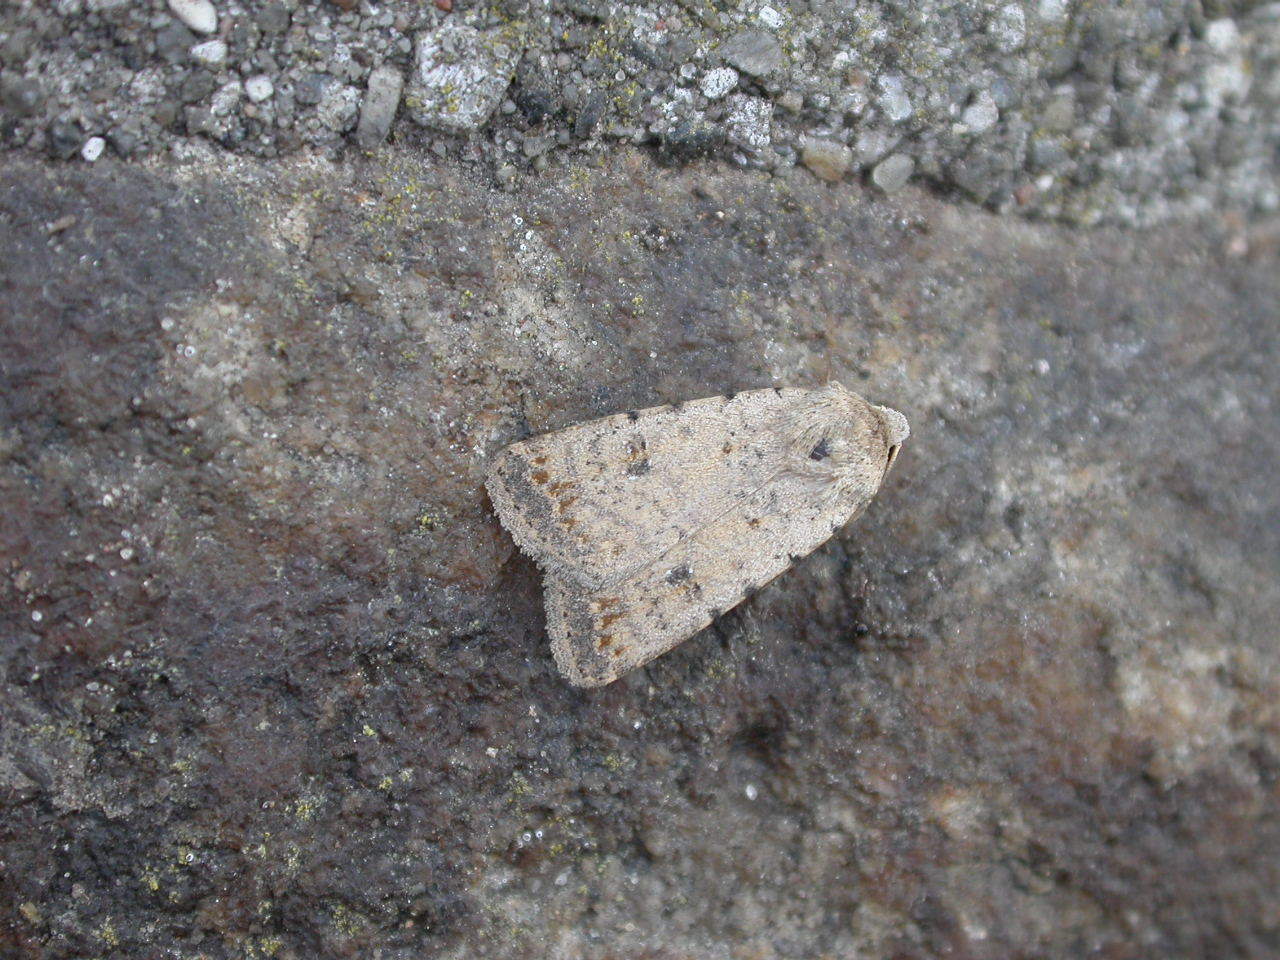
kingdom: Animalia
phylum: Arthropoda
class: Insecta
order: Lepidoptera
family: Noctuidae
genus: Caradrina
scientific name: Caradrina clavipalpis
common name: Pale mottled willow
